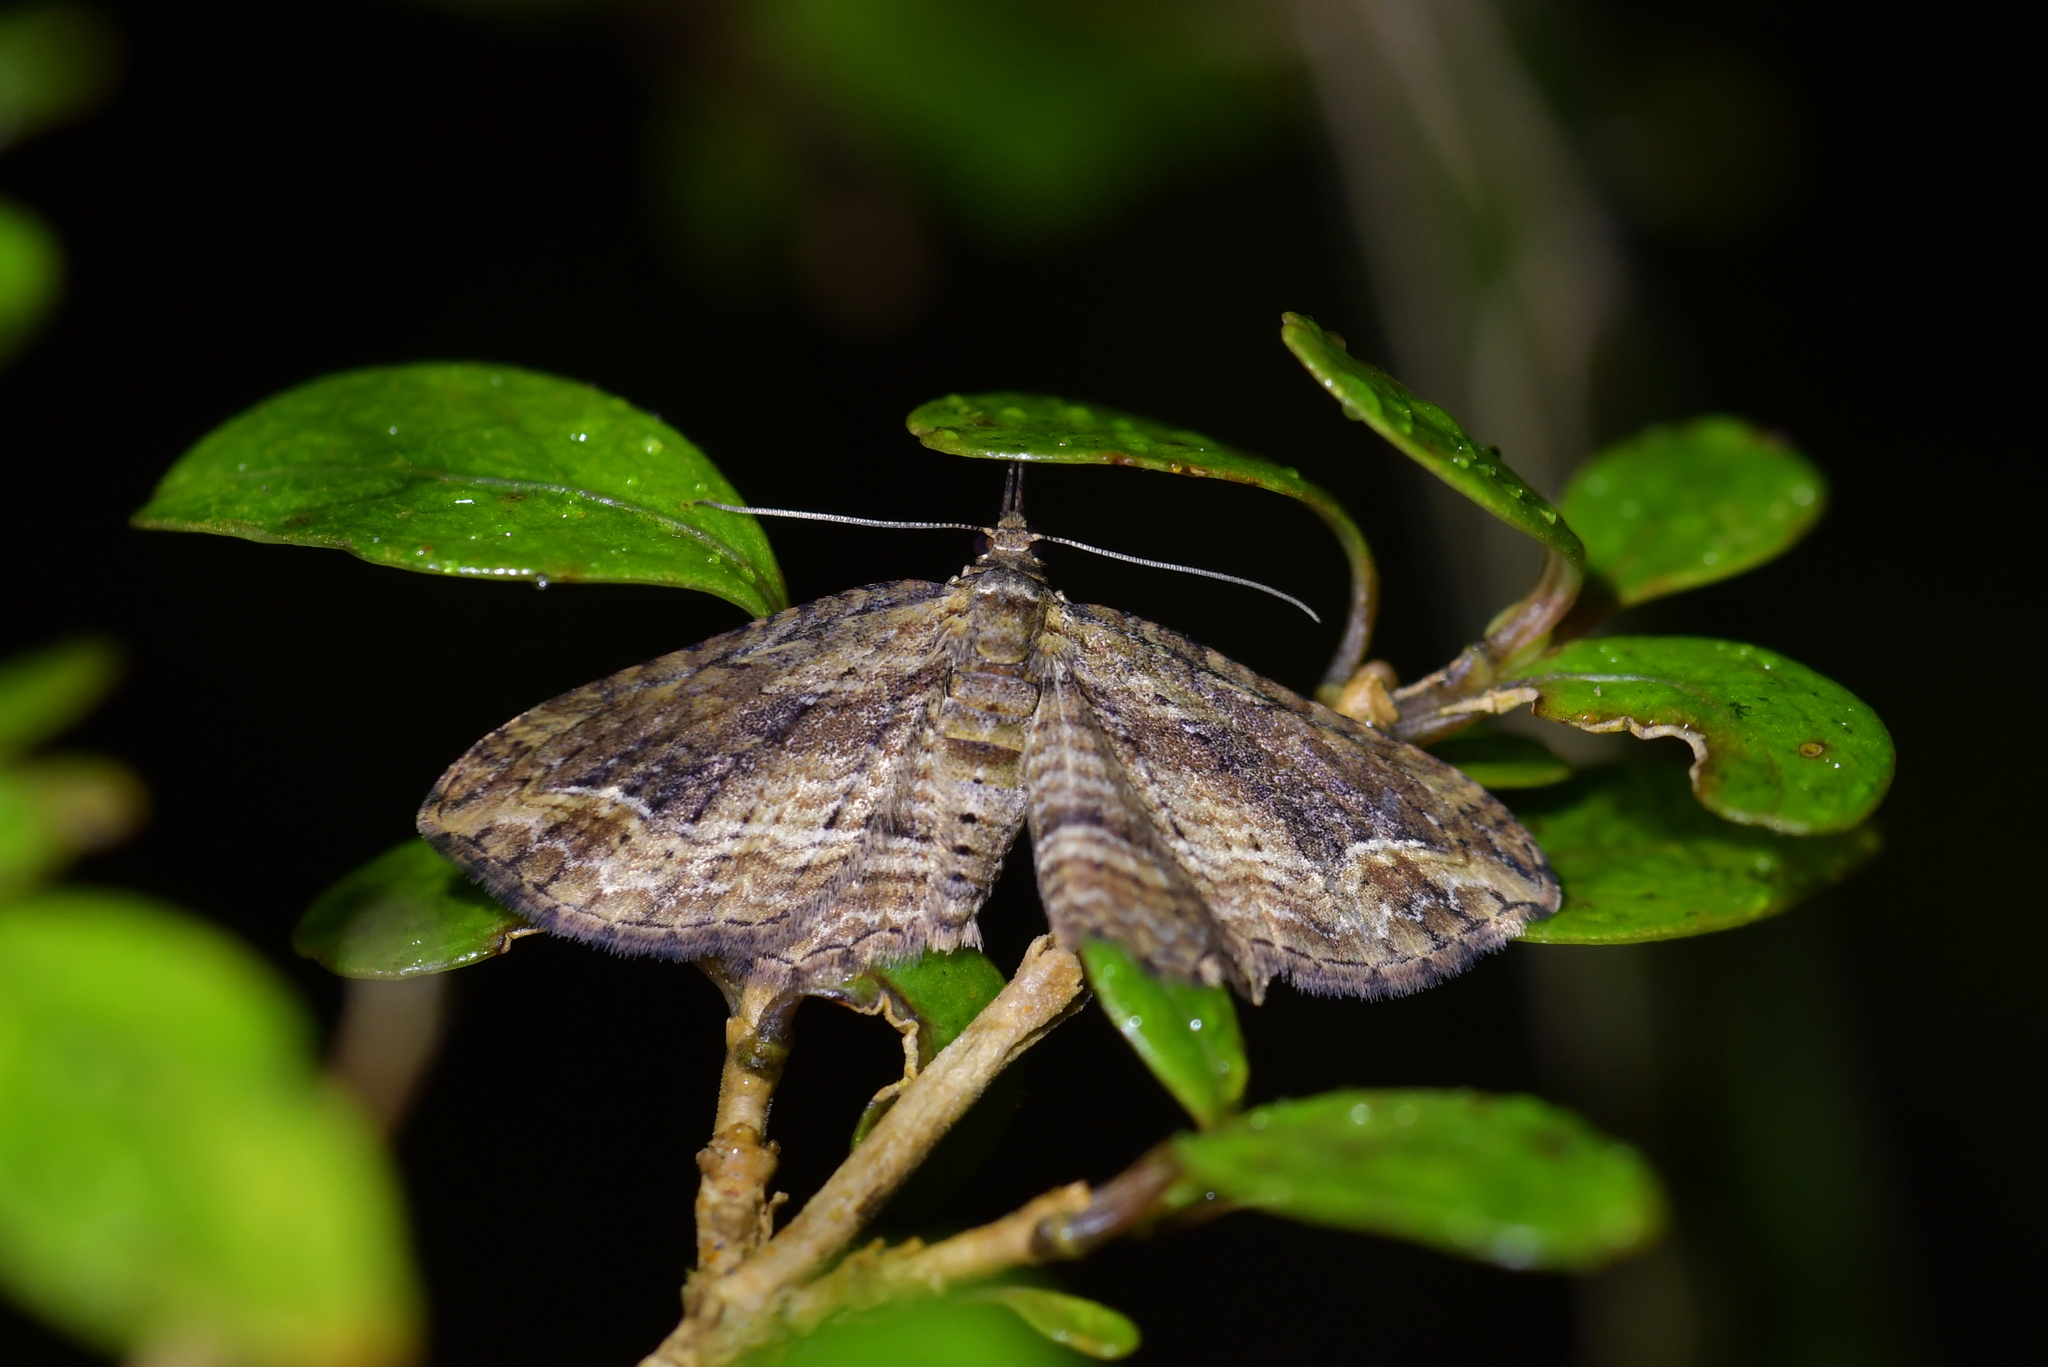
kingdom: Animalia
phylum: Arthropoda
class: Insecta
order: Lepidoptera
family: Geometridae
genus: Chloroclystis
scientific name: Chloroclystis filata
